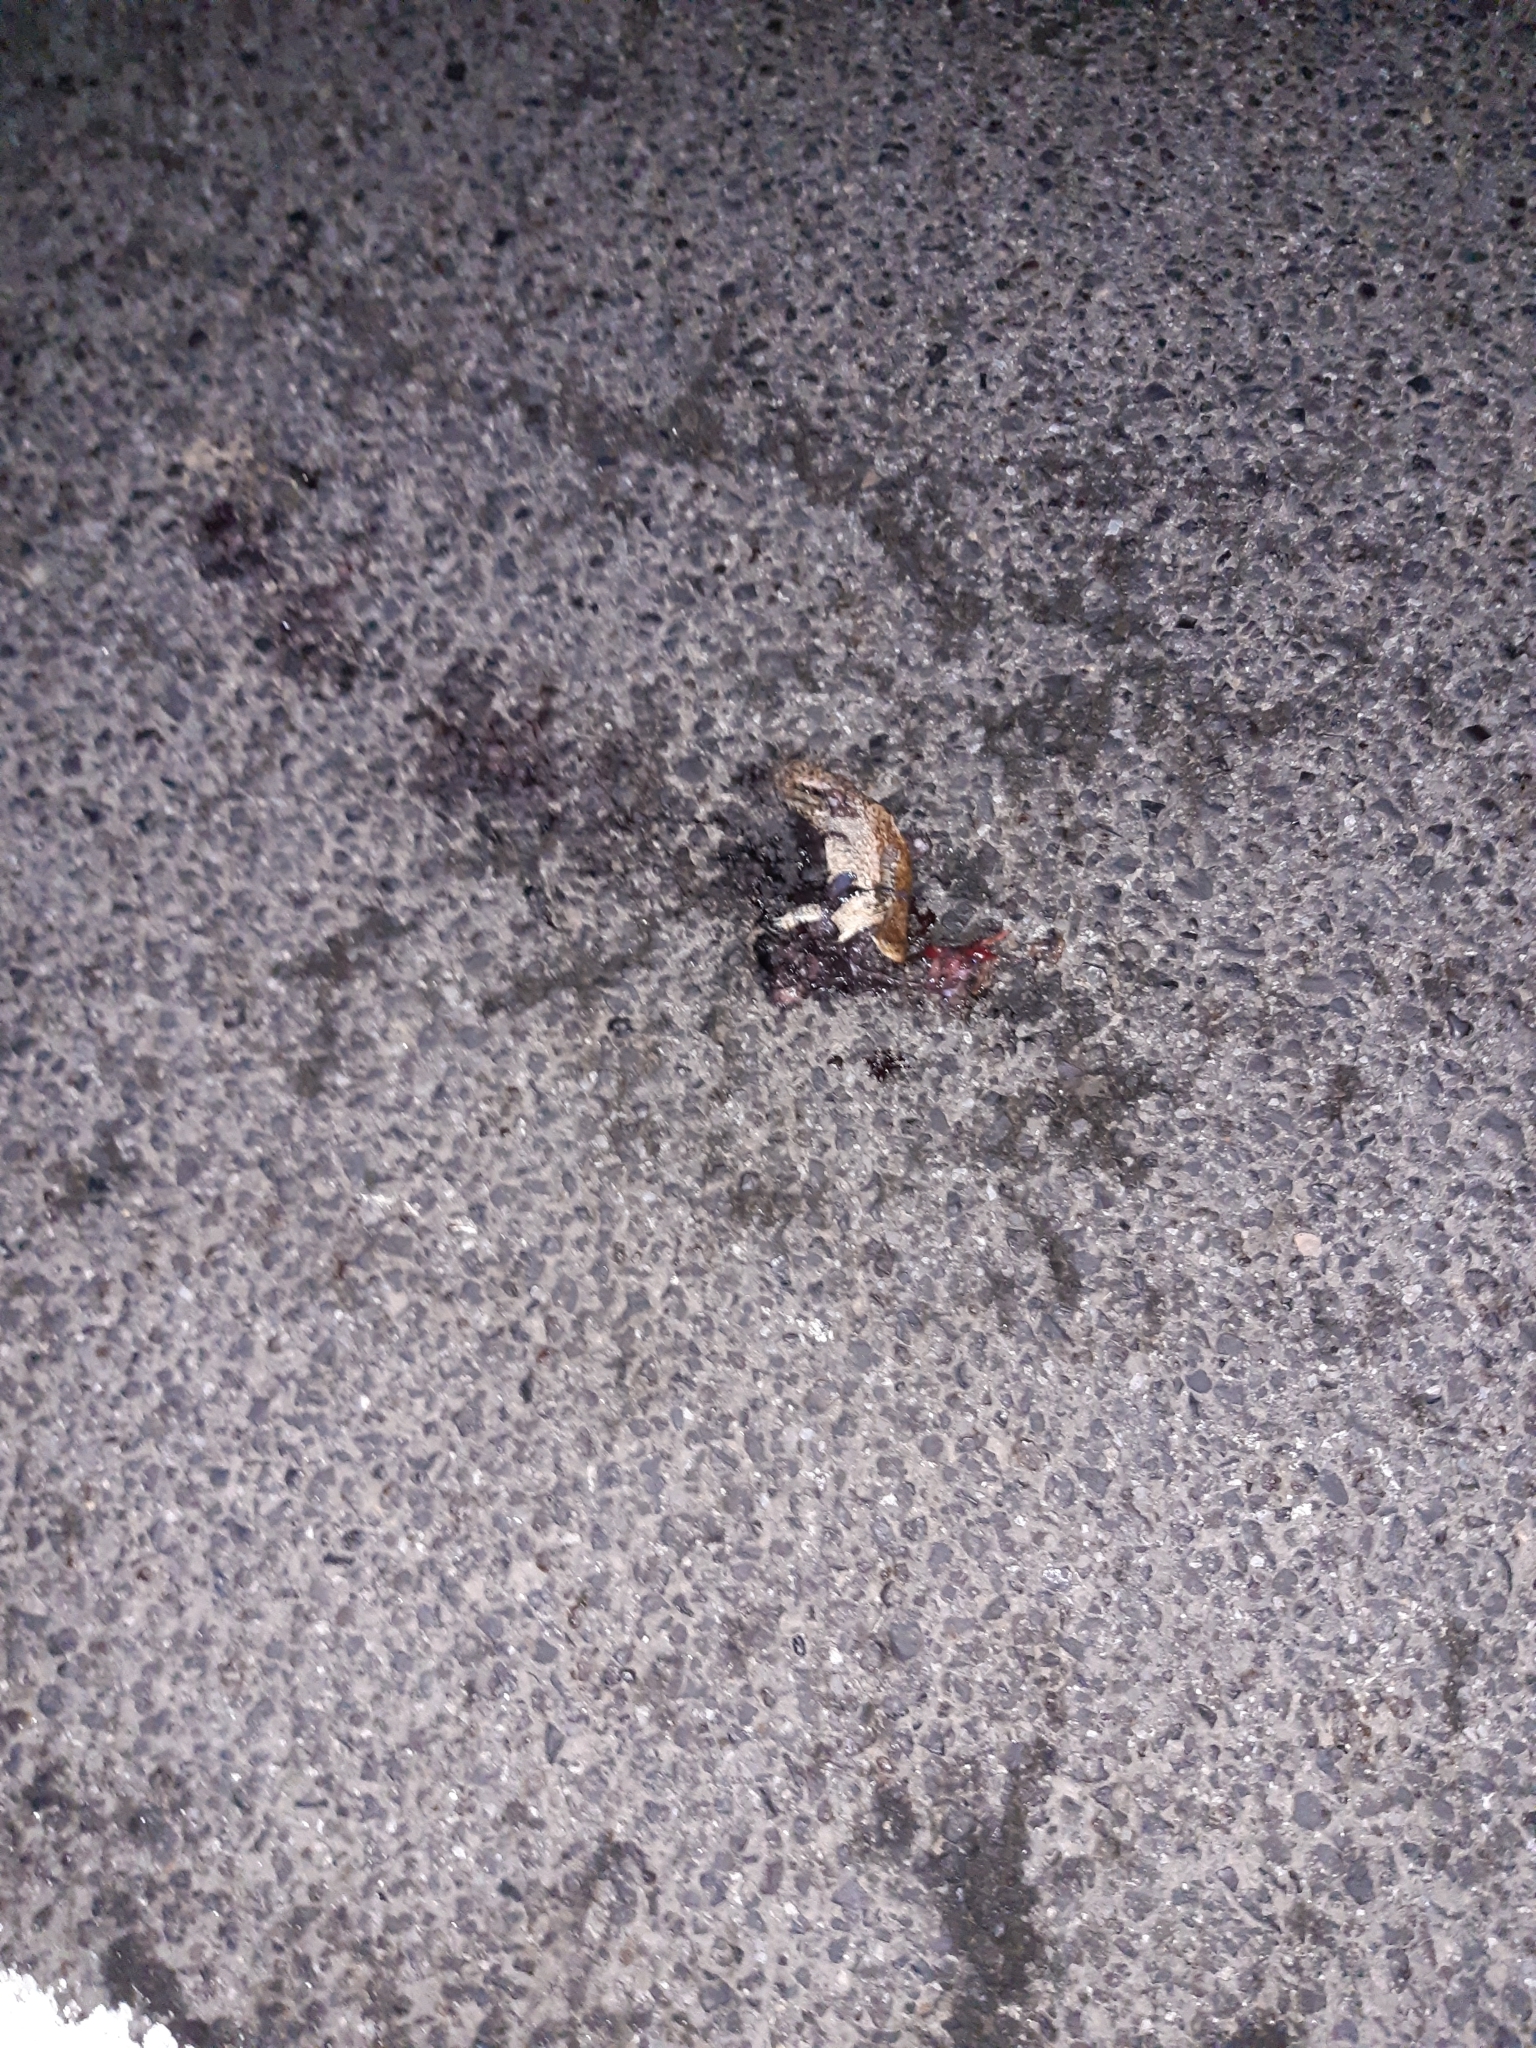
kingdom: Animalia
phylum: Chordata
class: Amphibia
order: Anura
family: Bufonidae
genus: Bufo
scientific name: Bufo bufo
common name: Common toad
